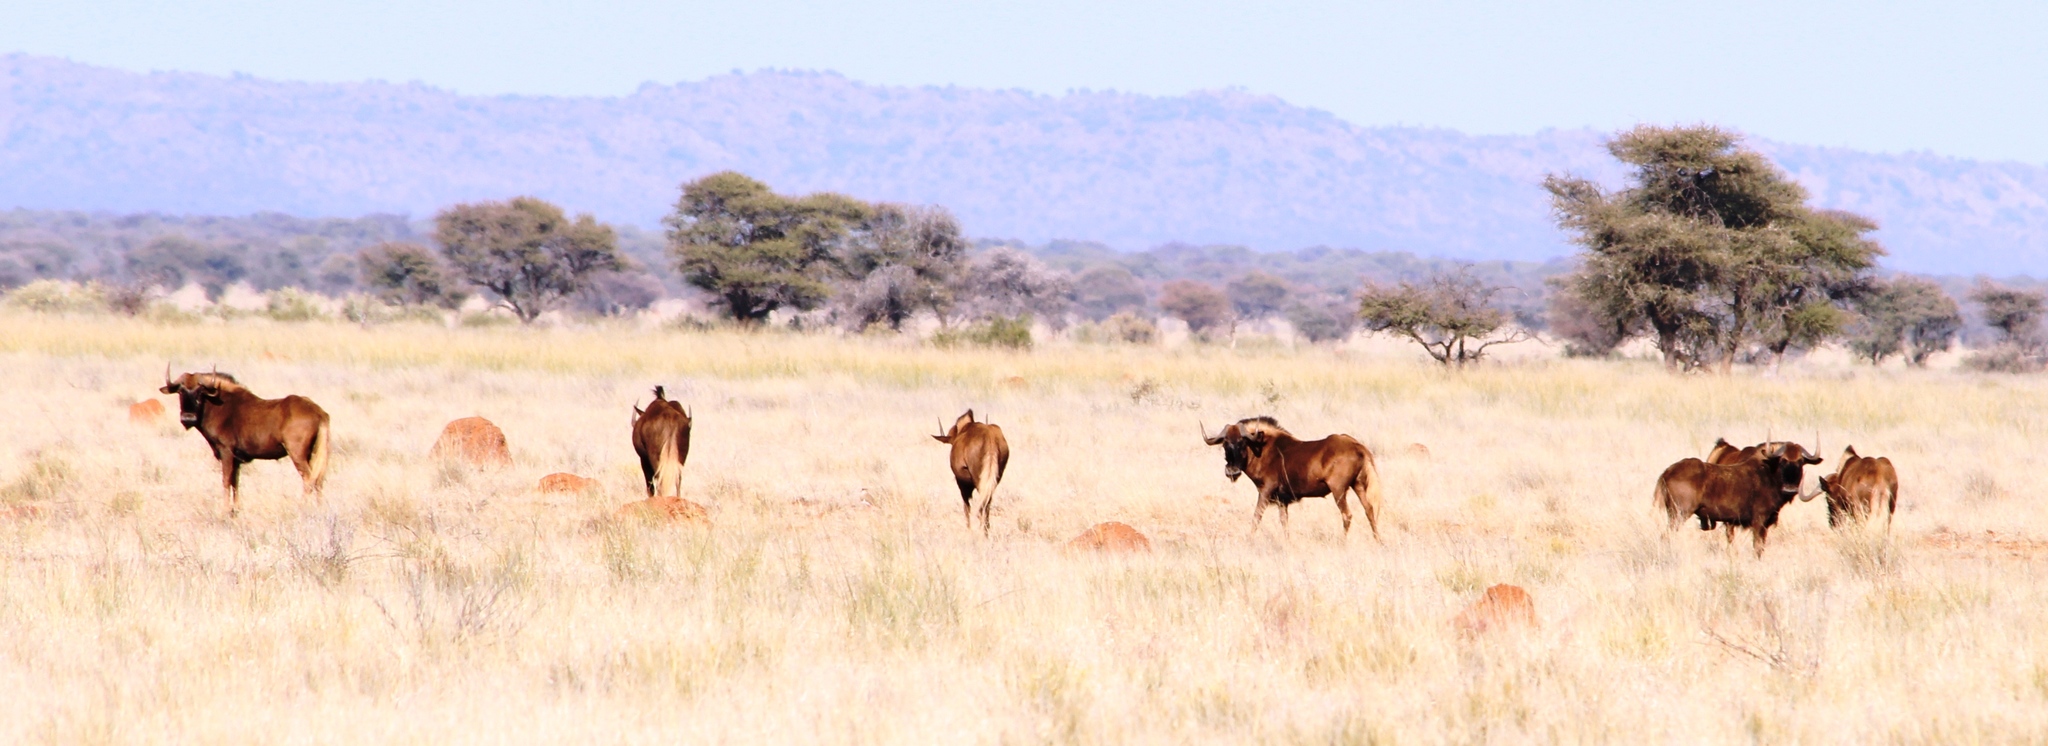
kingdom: Animalia
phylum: Chordata
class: Mammalia
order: Artiodactyla
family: Bovidae
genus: Connochaetes
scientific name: Connochaetes gnou
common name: Black wildebeest
